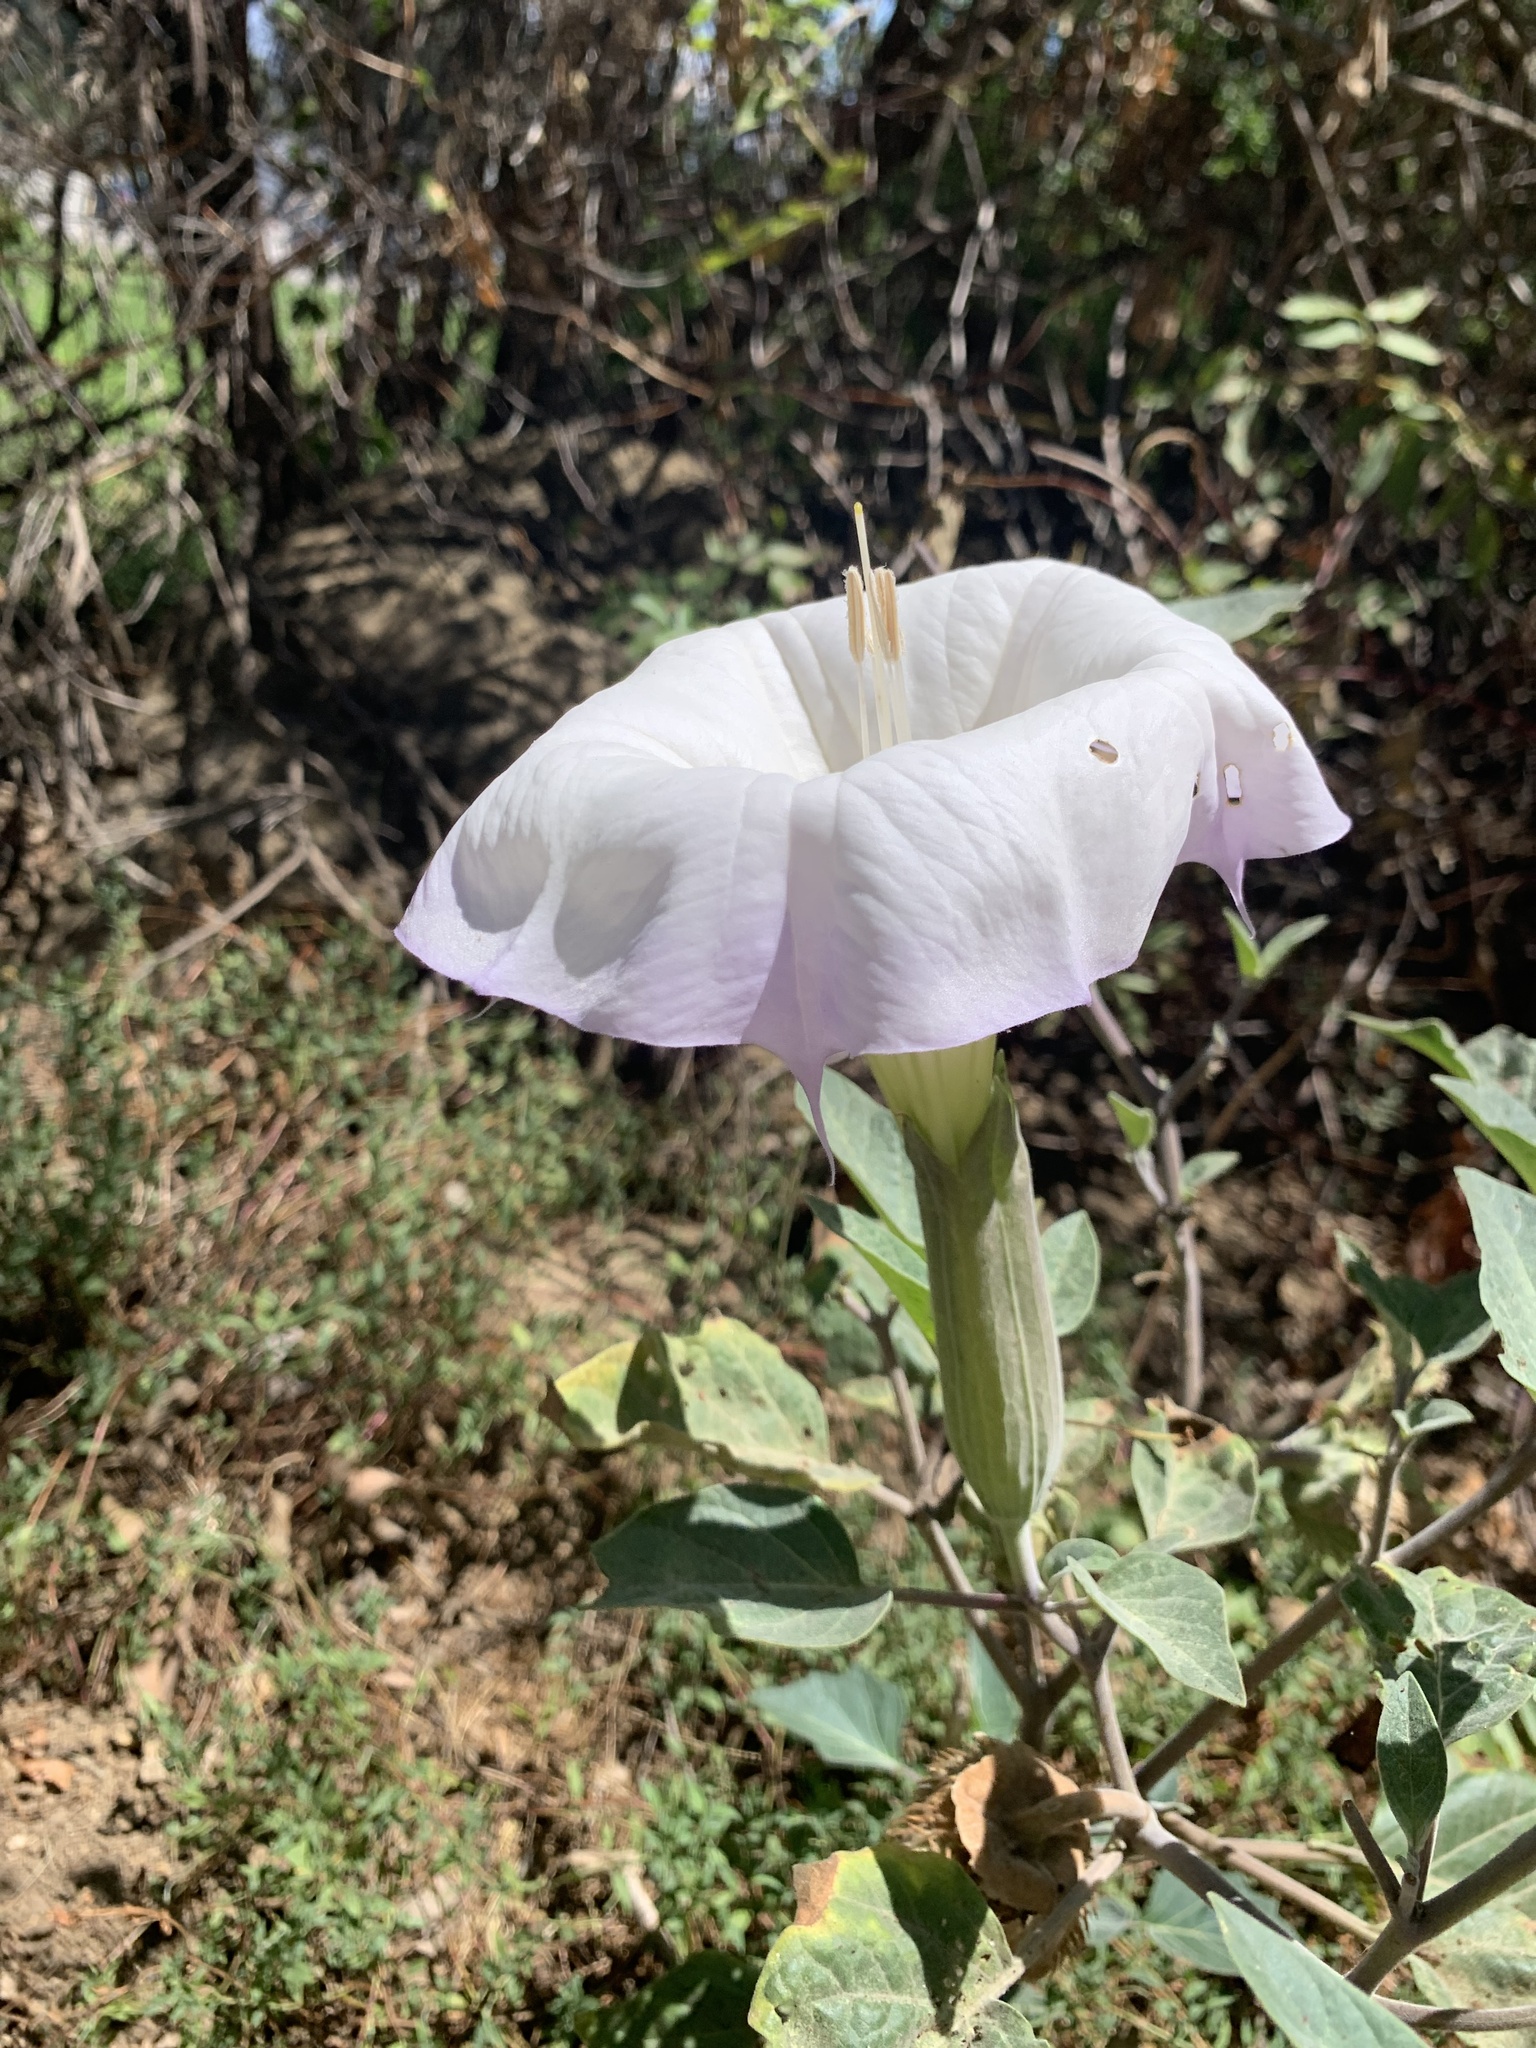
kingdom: Plantae
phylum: Tracheophyta
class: Magnoliopsida
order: Solanales
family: Solanaceae
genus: Datura
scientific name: Datura wrightii
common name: Sacred thorn-apple
